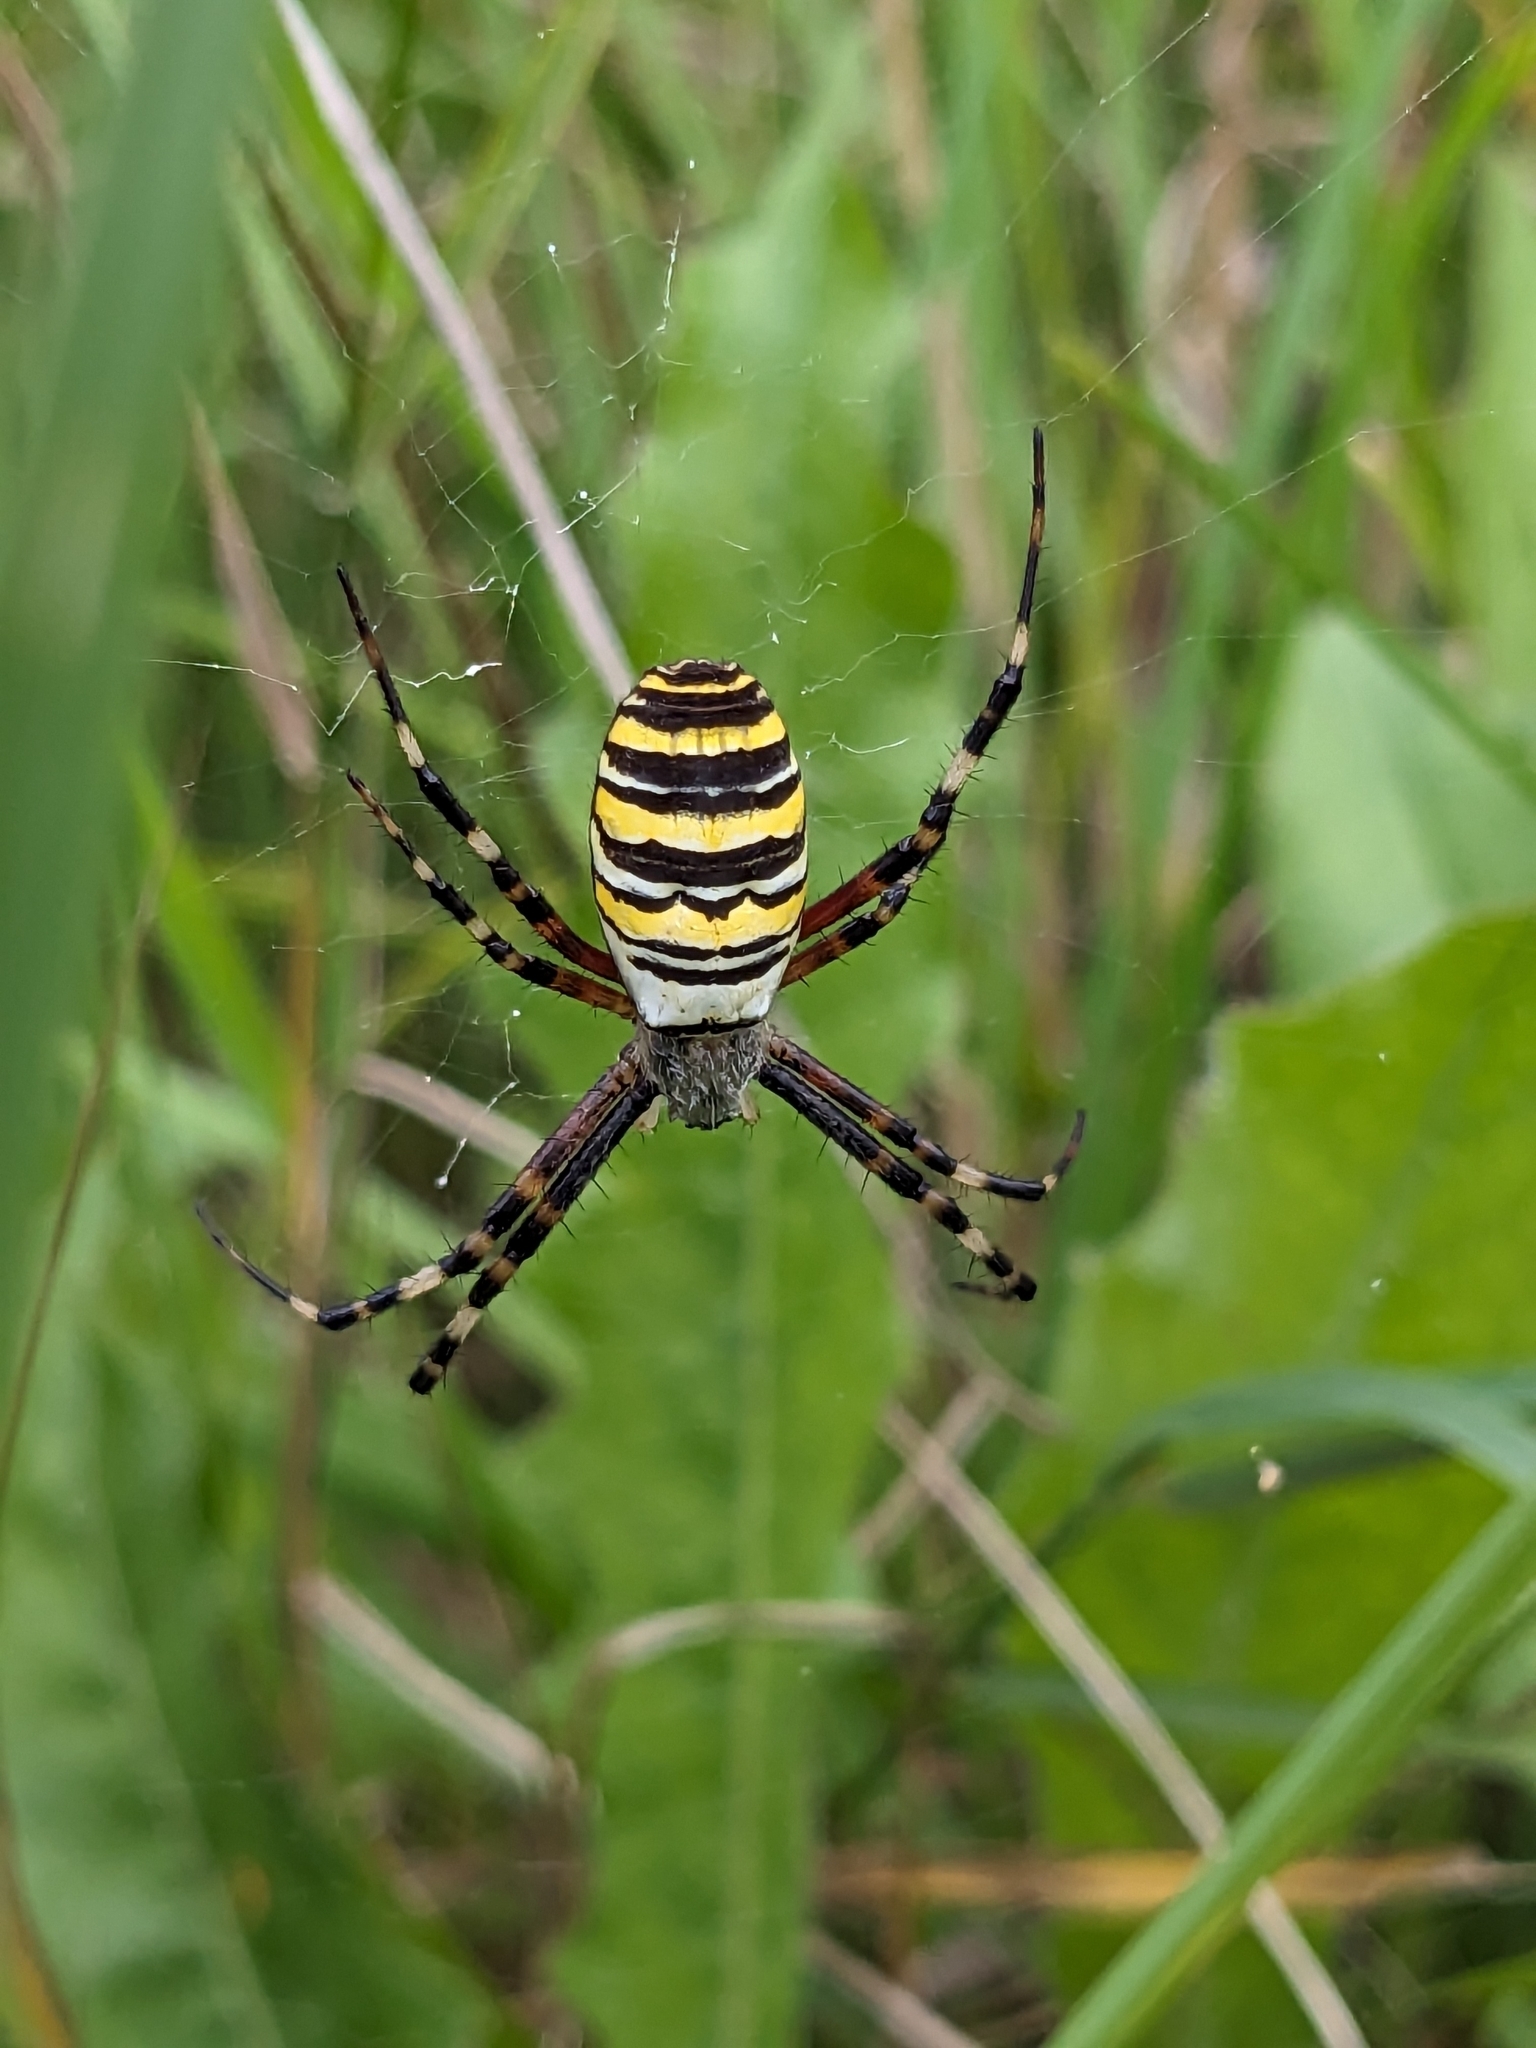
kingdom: Animalia
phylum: Arthropoda
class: Arachnida
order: Araneae
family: Araneidae
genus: Argiope
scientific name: Argiope bruennichi
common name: Wasp spider
